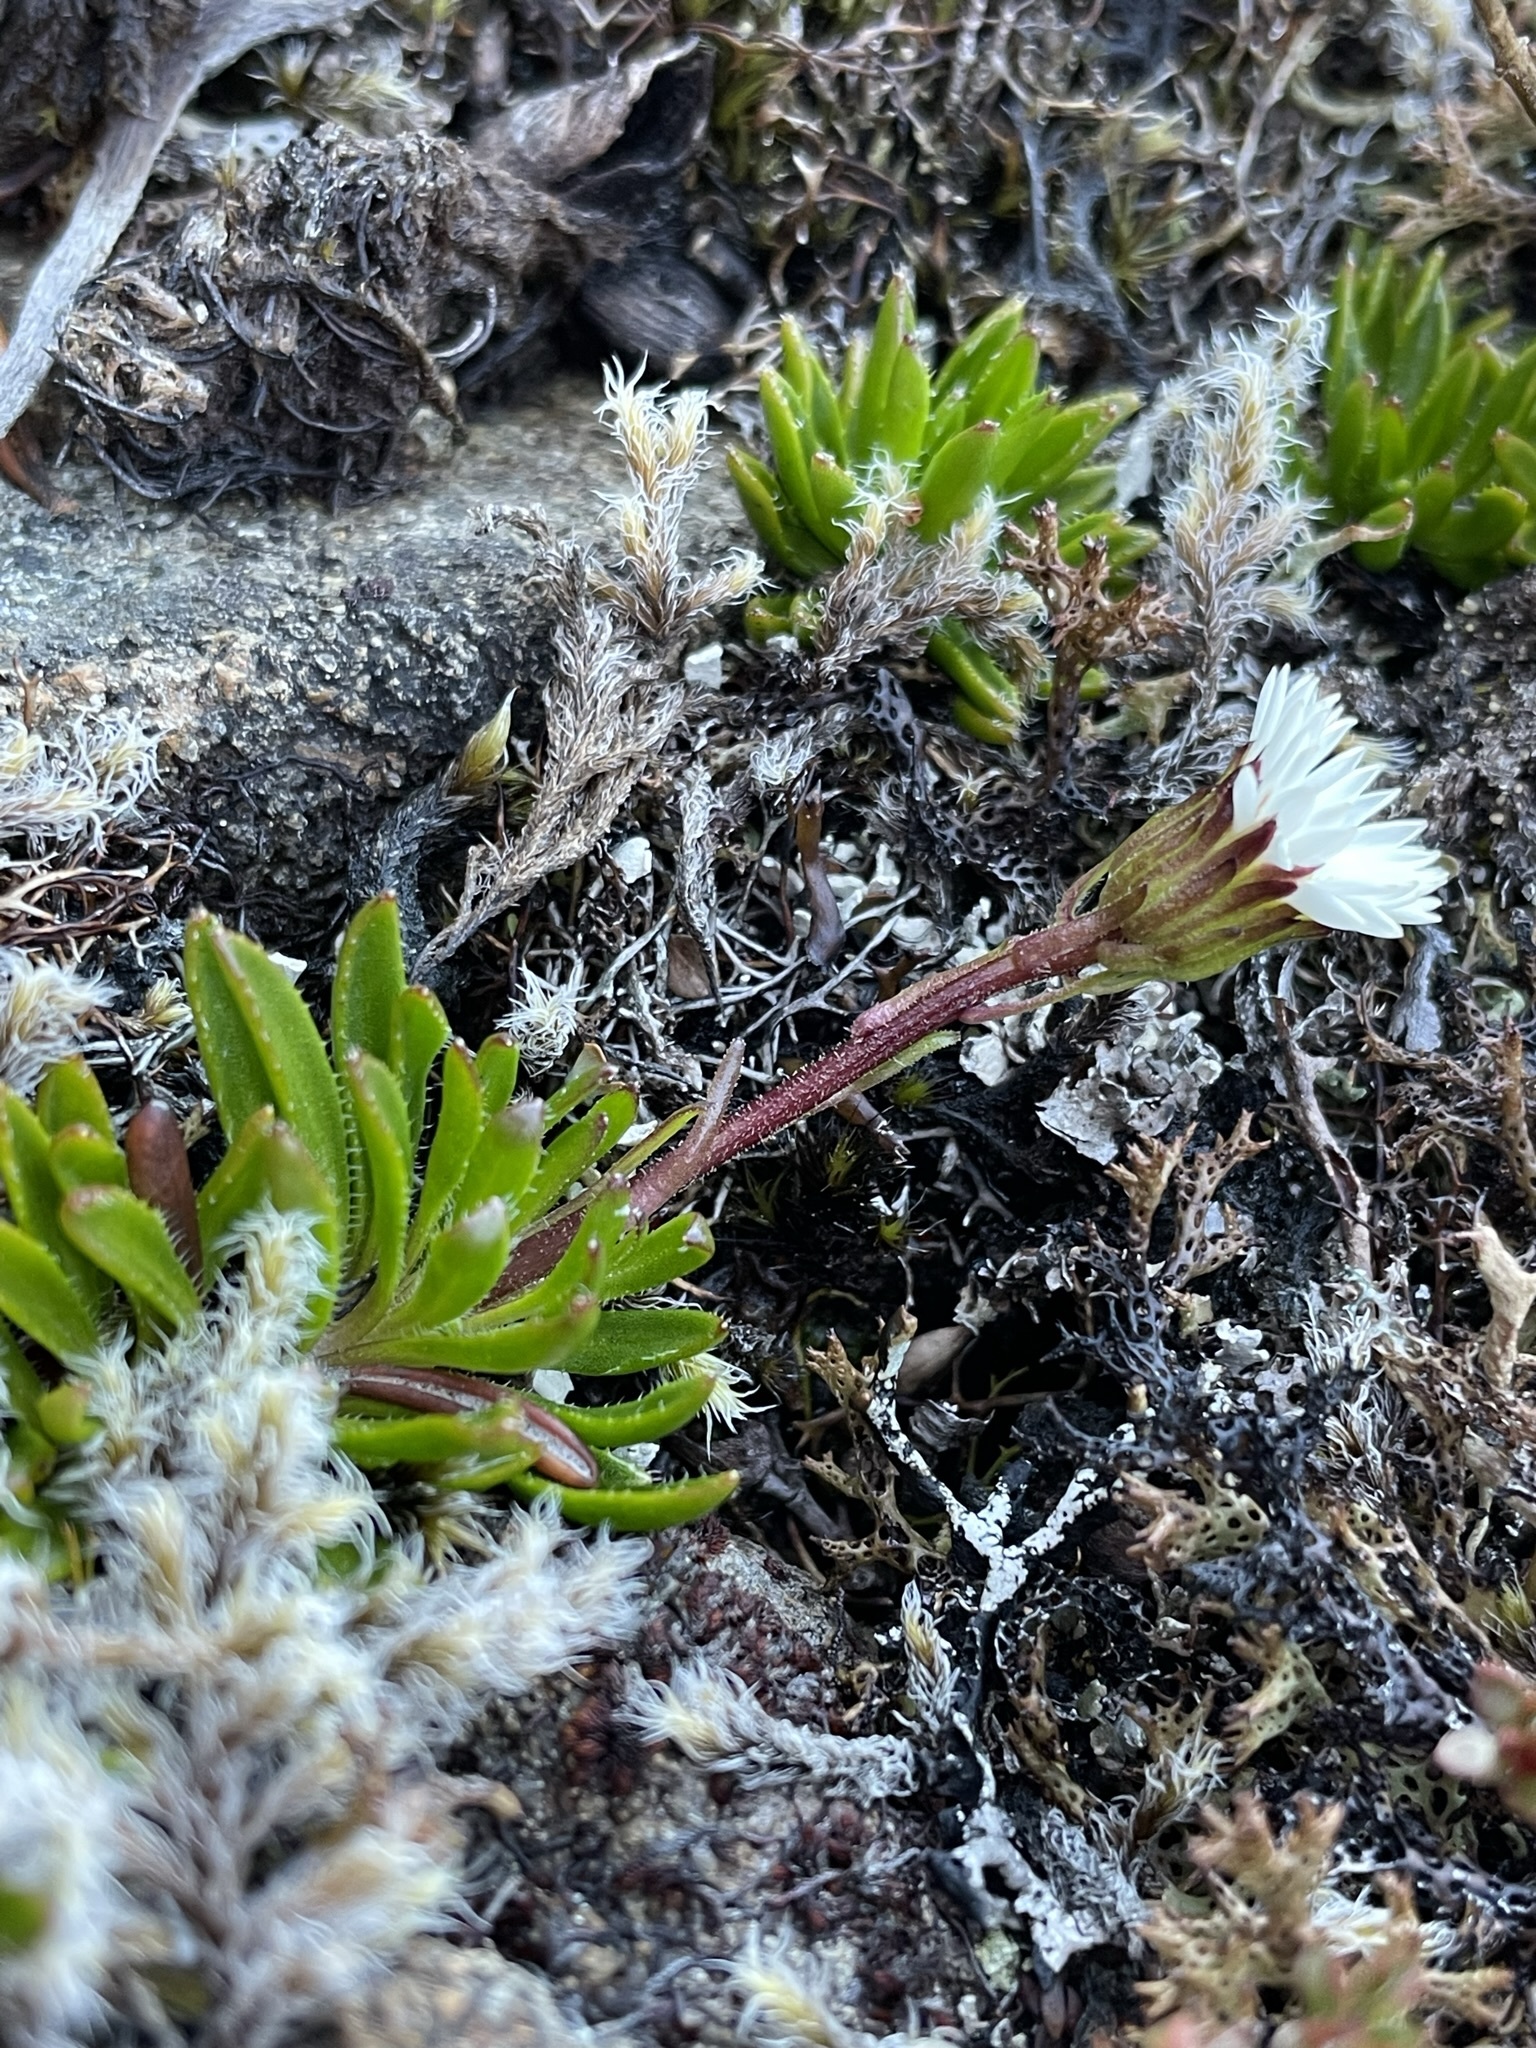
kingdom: Plantae
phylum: Tracheophyta
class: Magnoliopsida
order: Asterales
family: Asteraceae
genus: Pappochroma
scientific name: Pappochroma stellatum
